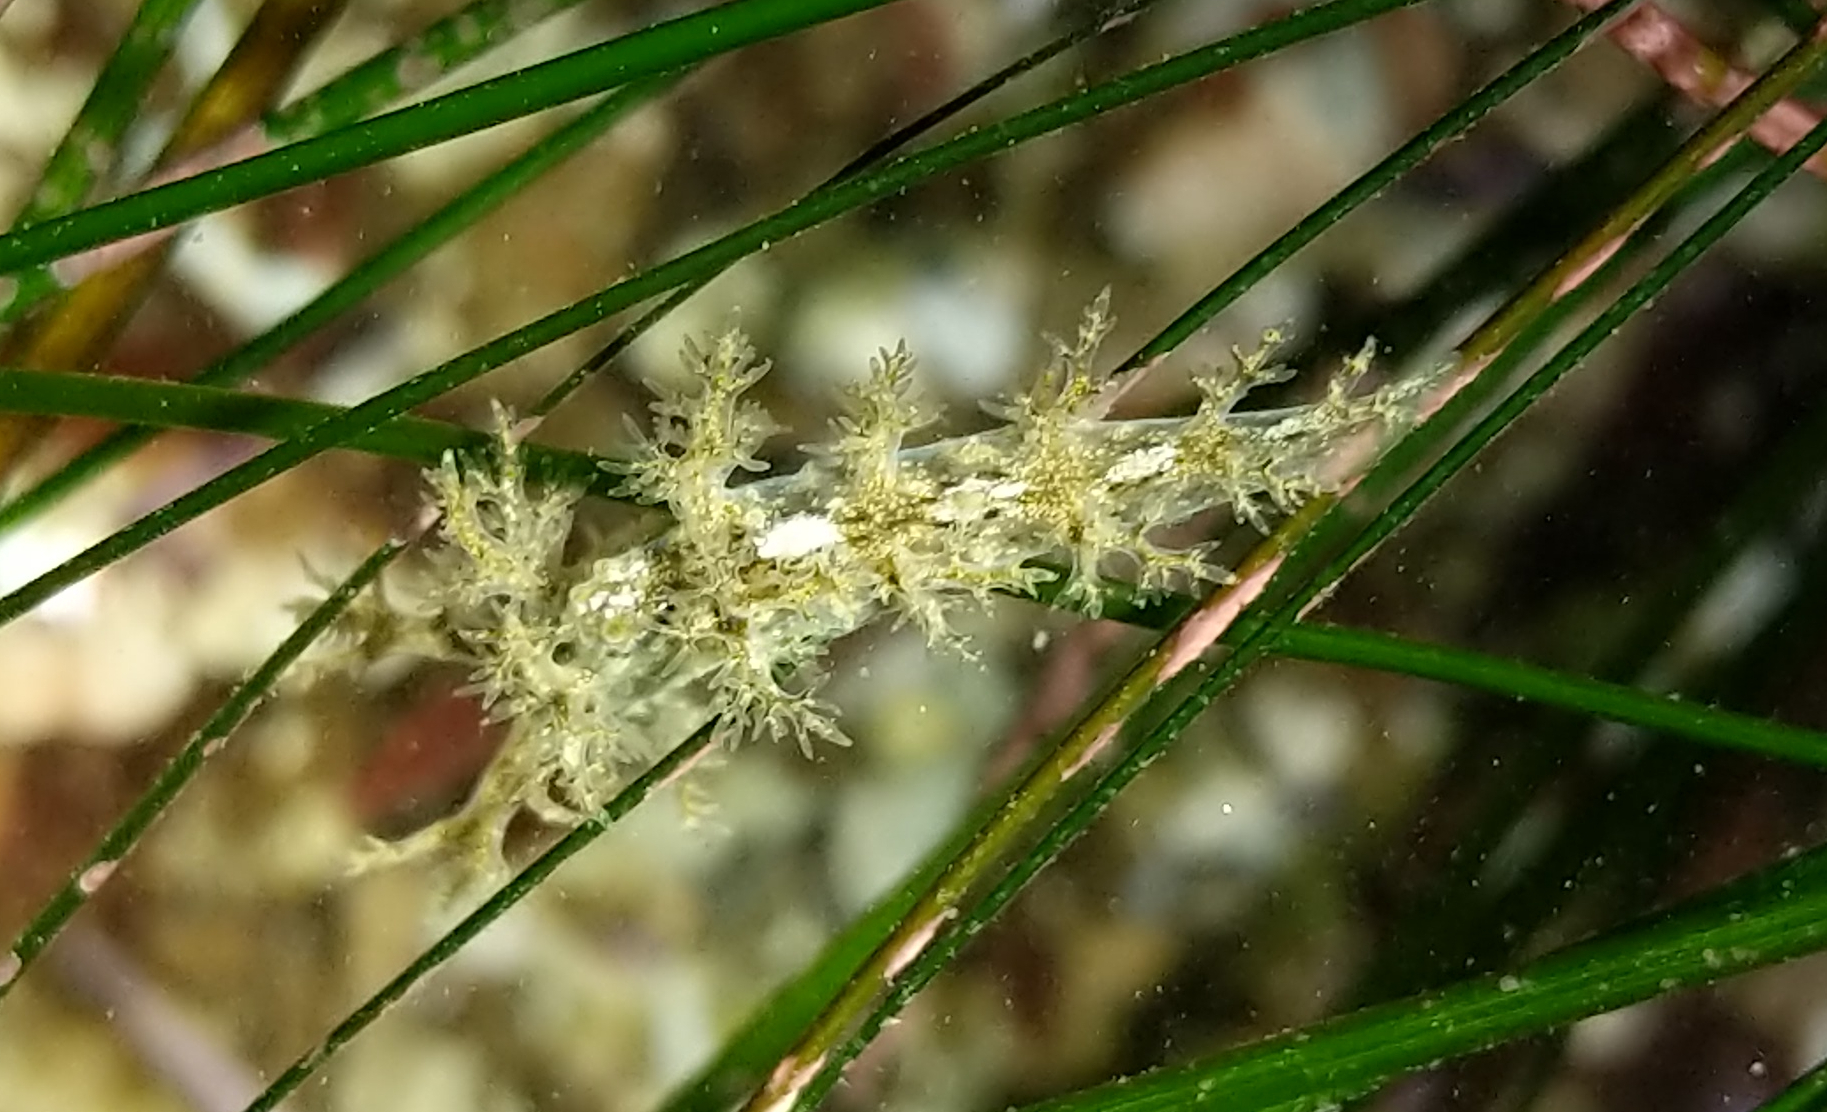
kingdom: Animalia
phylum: Mollusca
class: Gastropoda
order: Nudibranchia
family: Dendronotidae
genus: Dendronotus
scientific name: Dendronotus venustus
